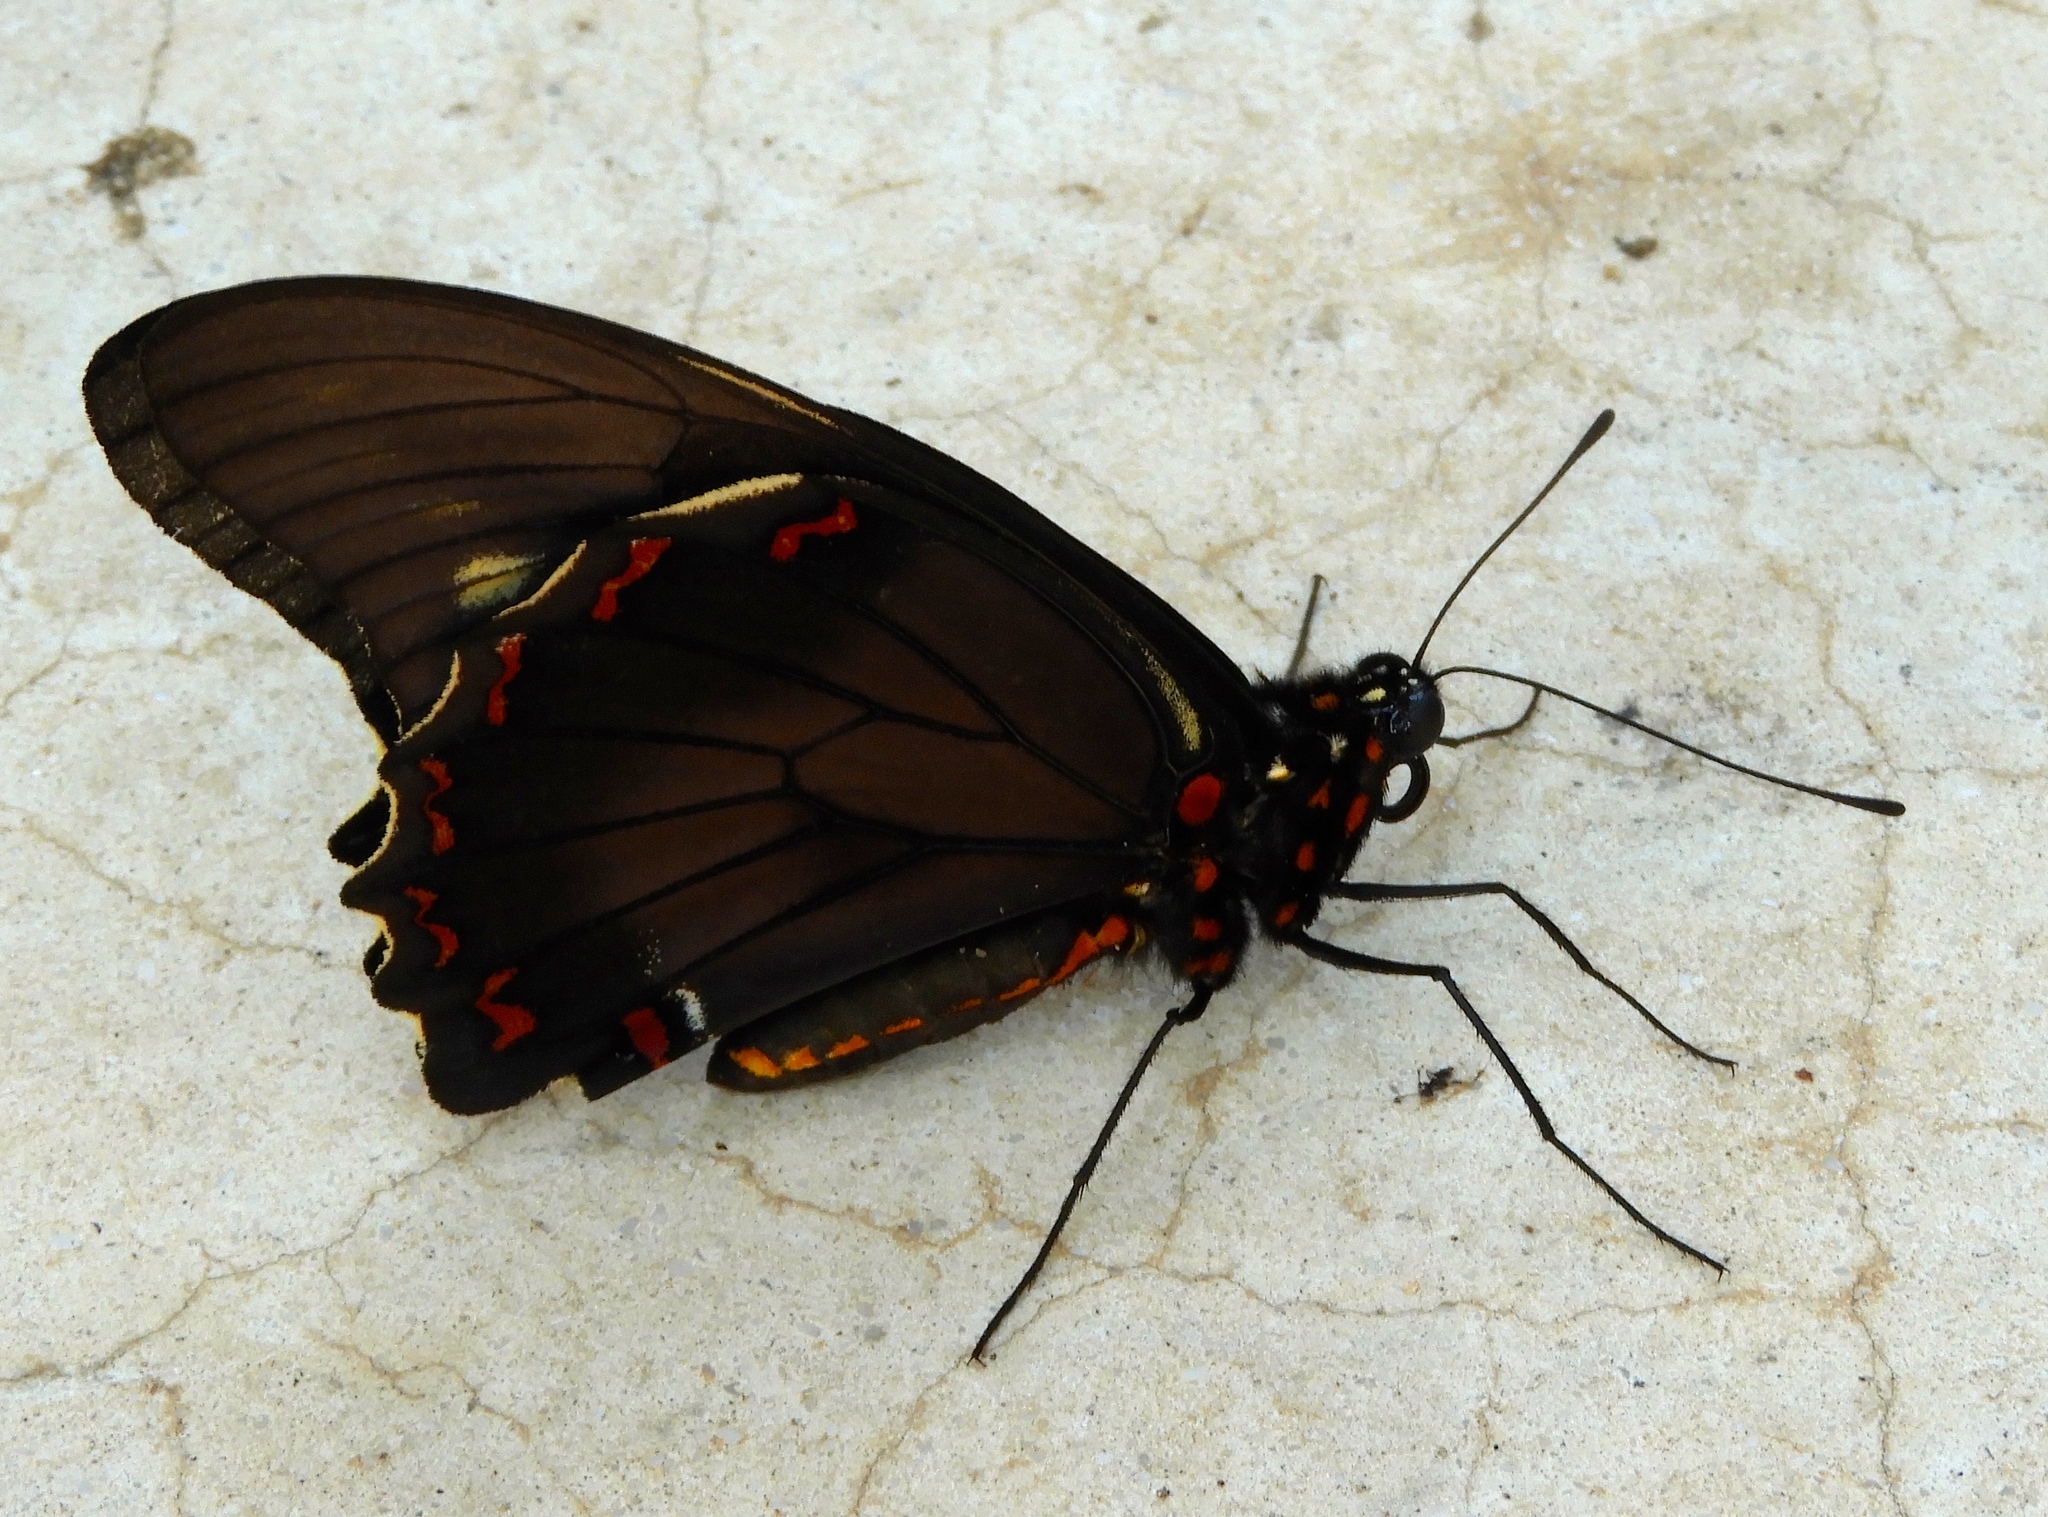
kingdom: Animalia
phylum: Arthropoda
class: Insecta
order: Lepidoptera
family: Papilionidae
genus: Battus
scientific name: Battus polydamas
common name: Polydamas swallowtail
